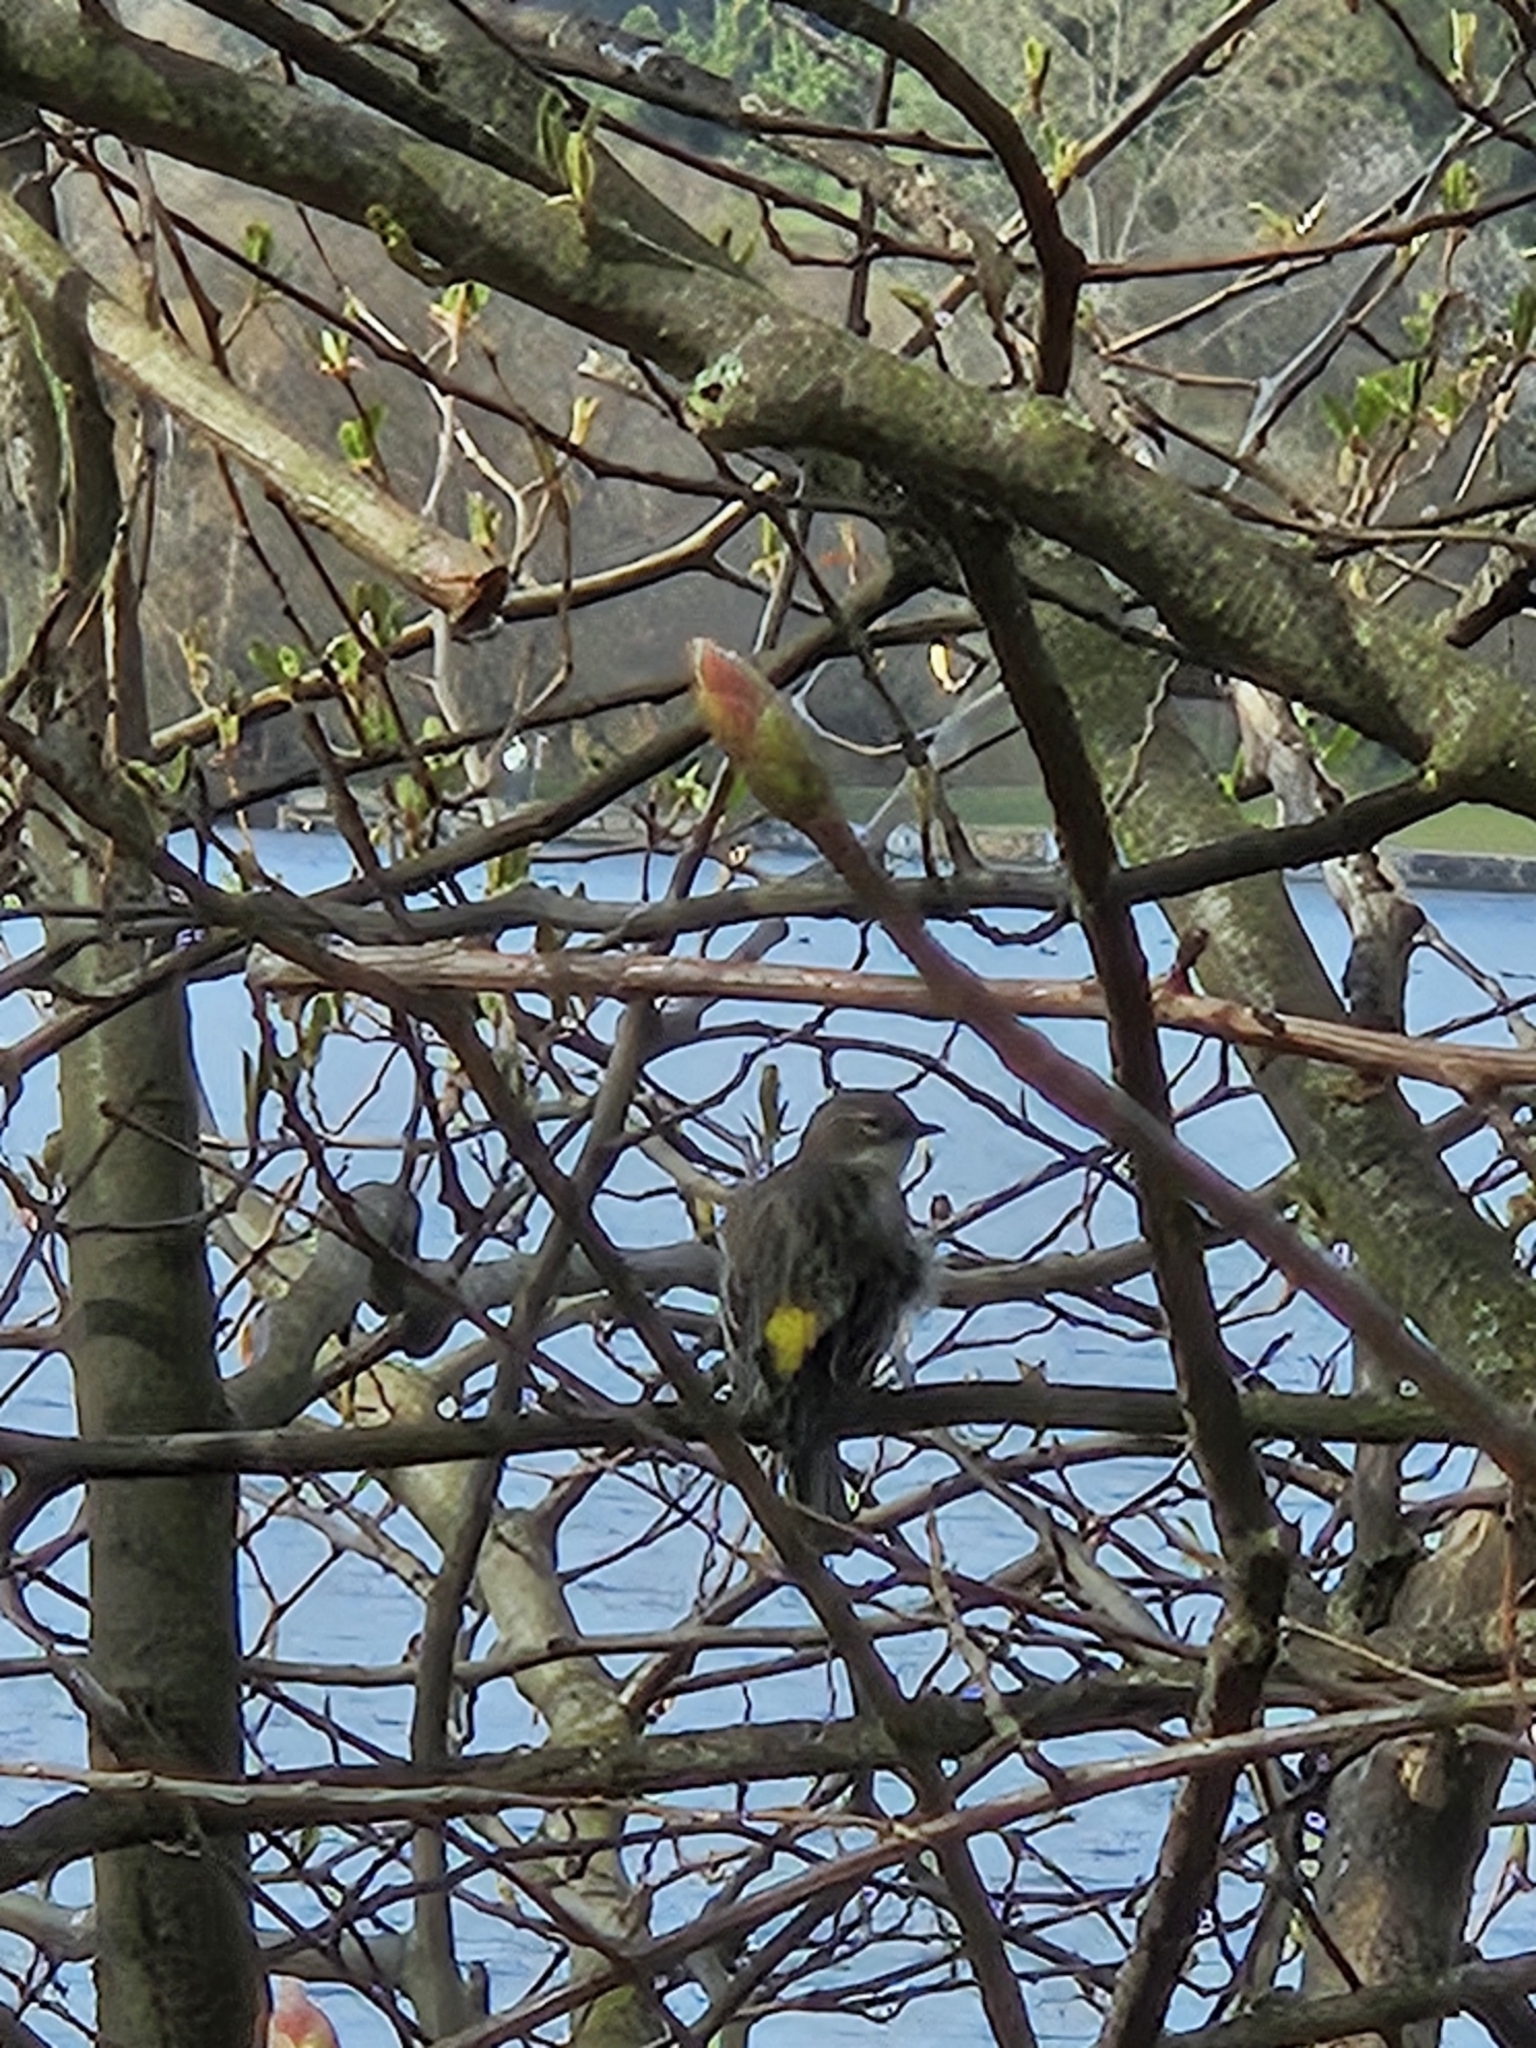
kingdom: Animalia
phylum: Chordata
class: Aves
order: Passeriformes
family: Parulidae
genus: Setophaga
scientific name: Setophaga coronata
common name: Myrtle warbler
